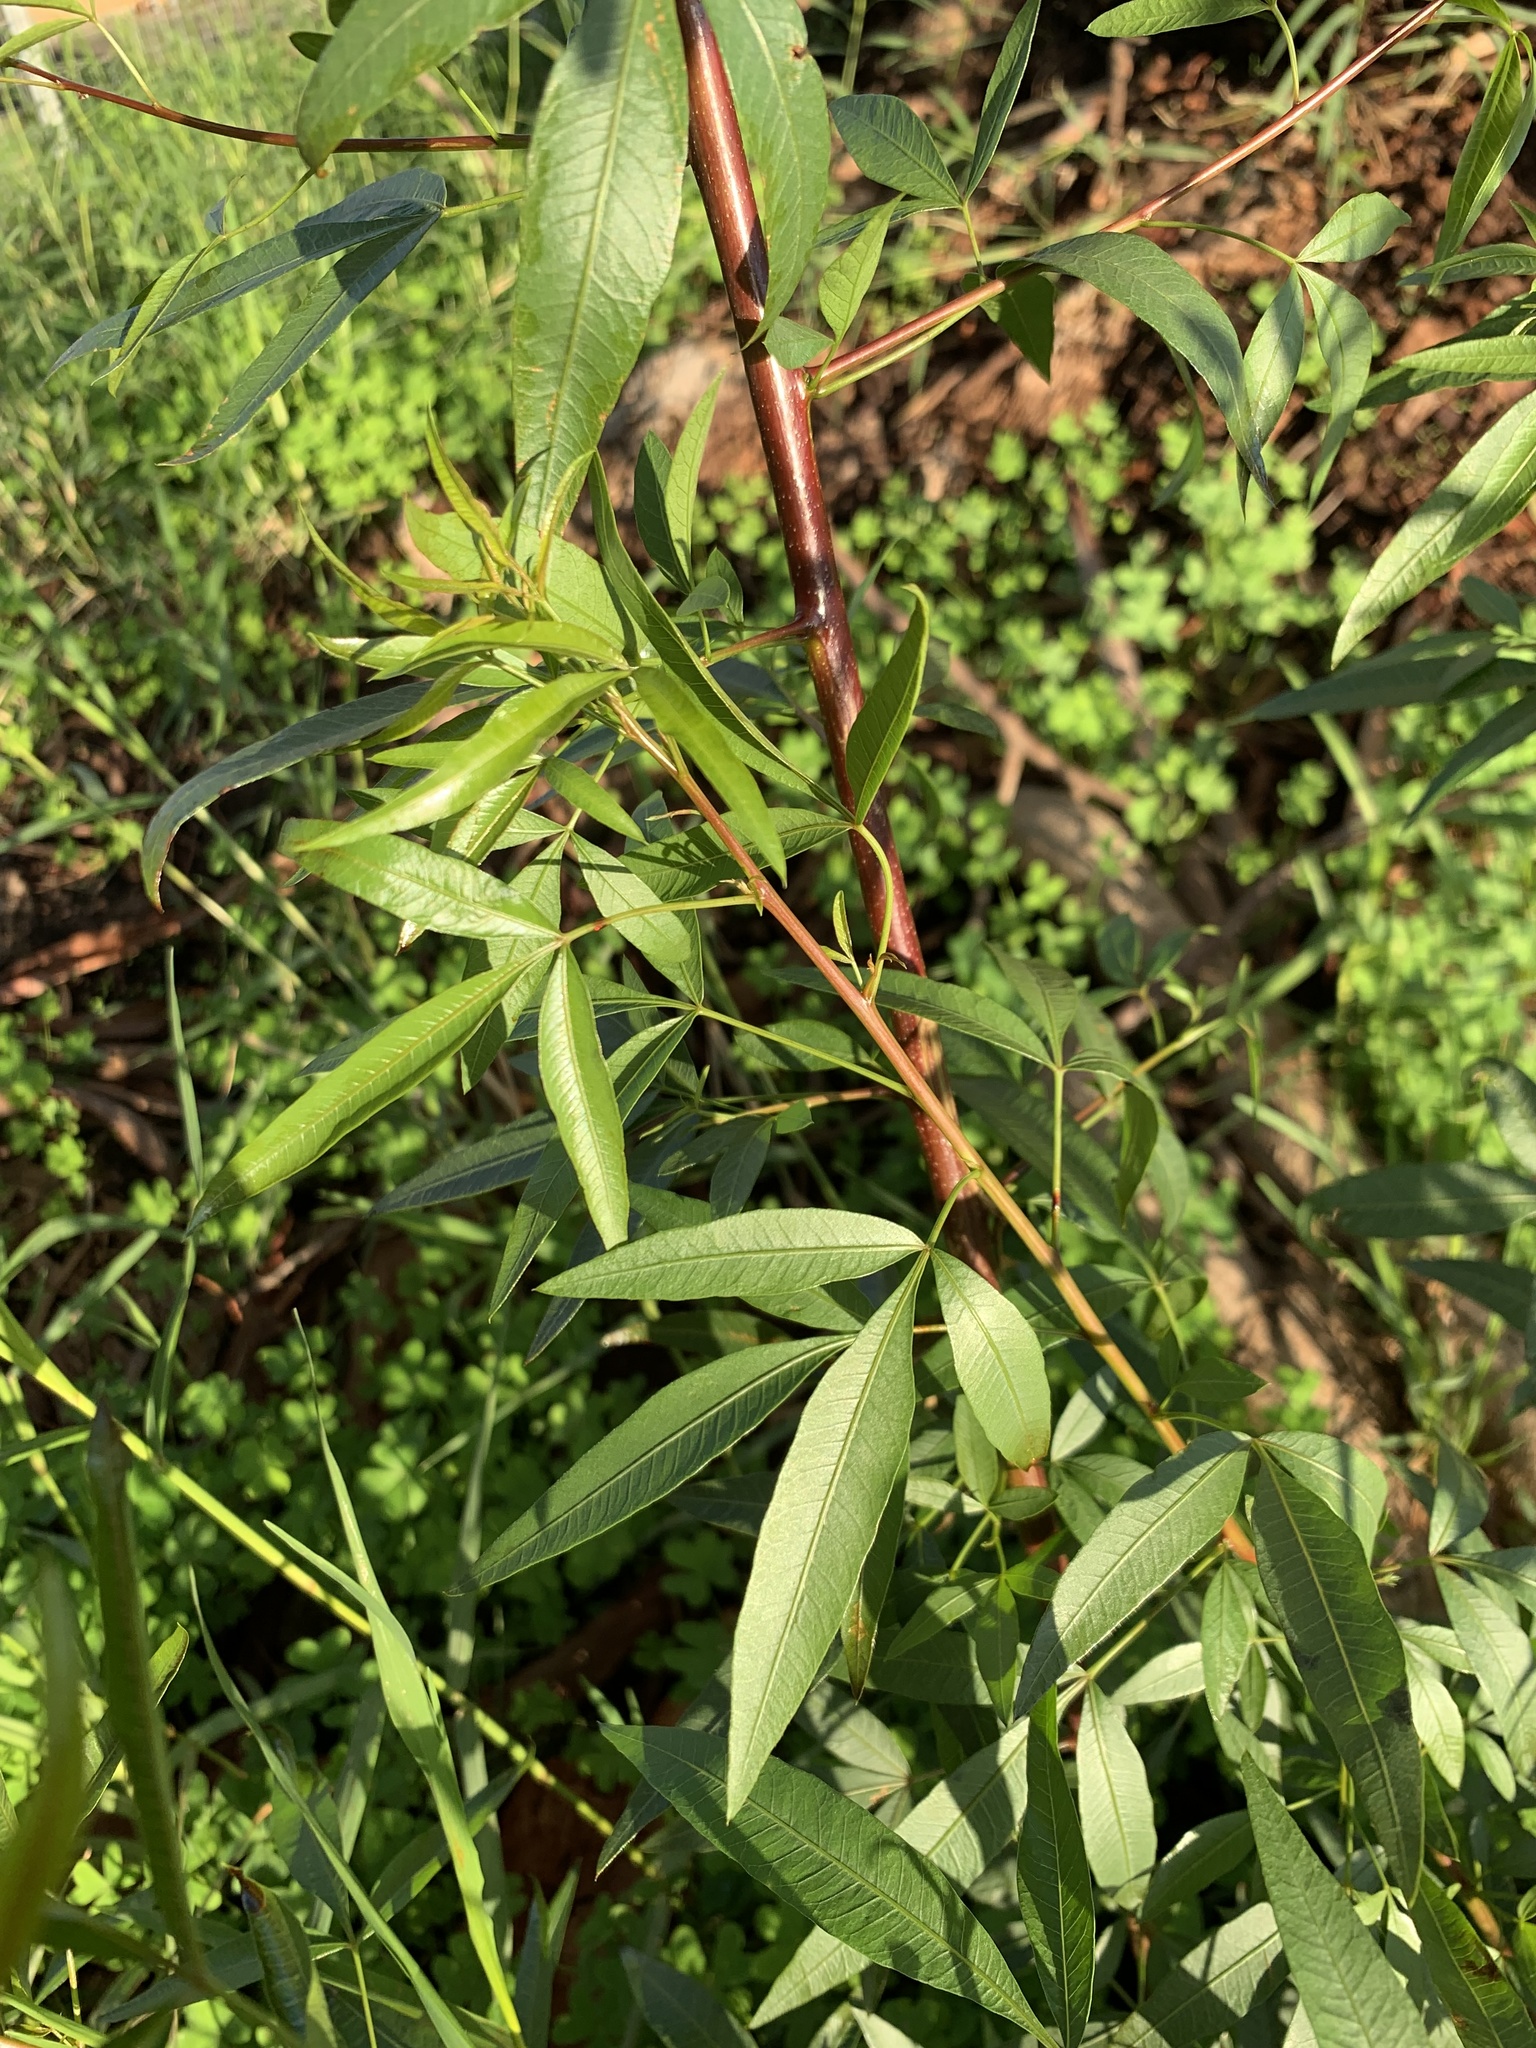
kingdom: Plantae
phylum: Tracheophyta
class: Magnoliopsida
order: Sapindales
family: Anacardiaceae
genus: Searsia
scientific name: Searsia pendulina
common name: White karee
